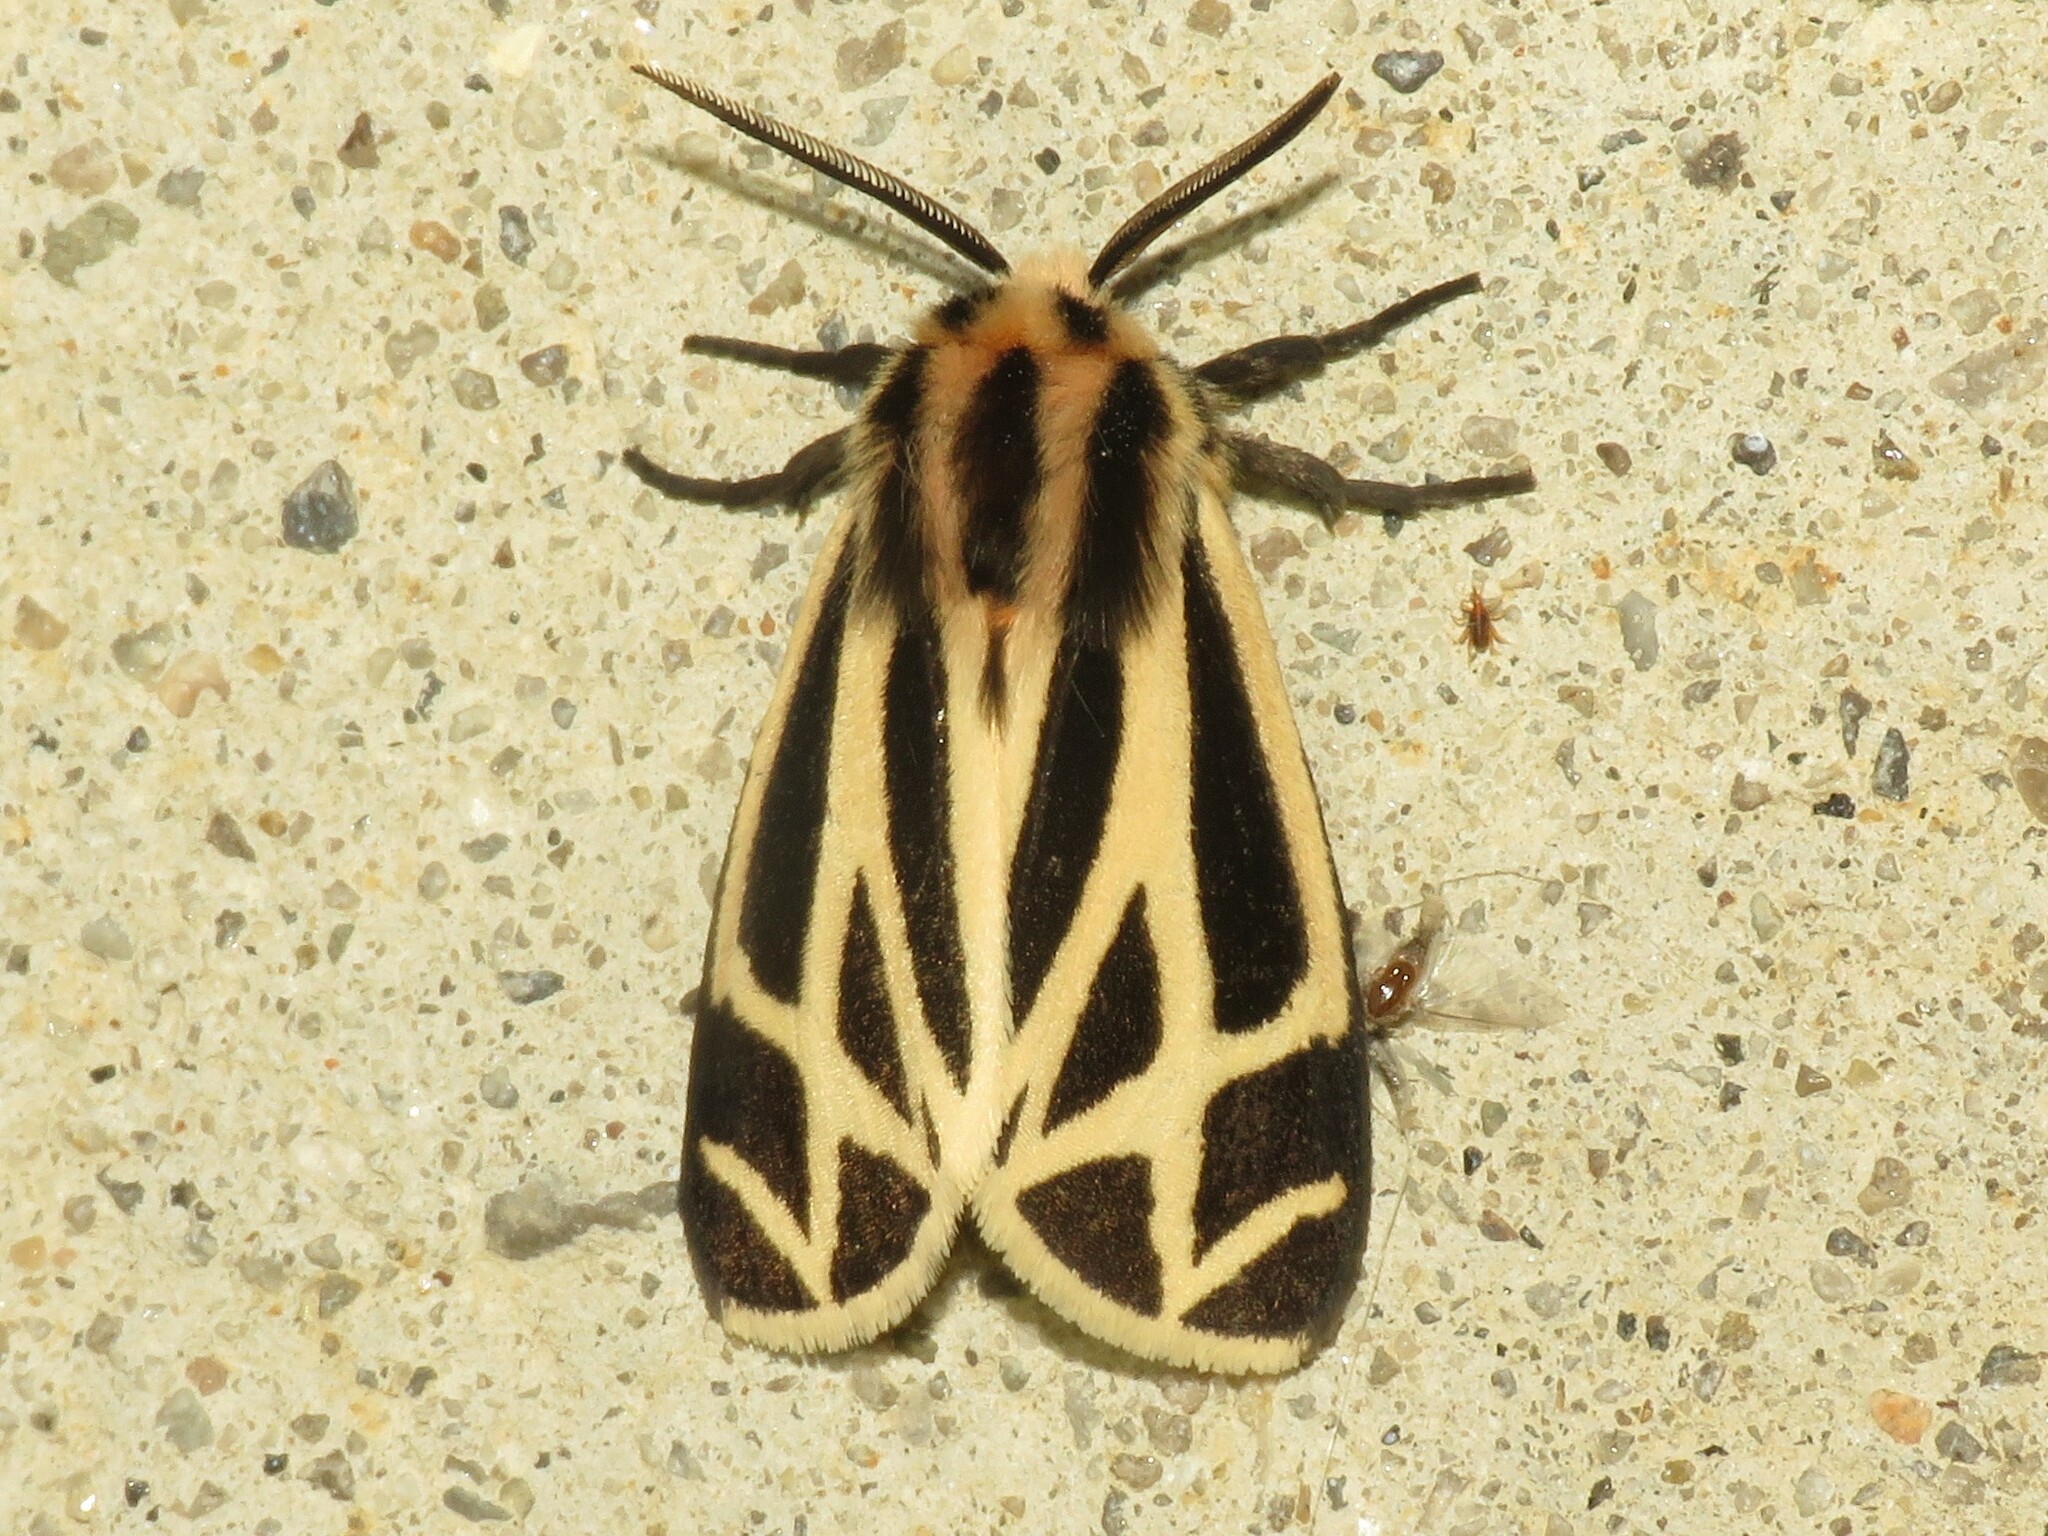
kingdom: Animalia
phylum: Arthropoda
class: Insecta
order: Lepidoptera
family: Erebidae
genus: Apantesis
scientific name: Apantesis phalerata
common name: Harnessed tiger moth
